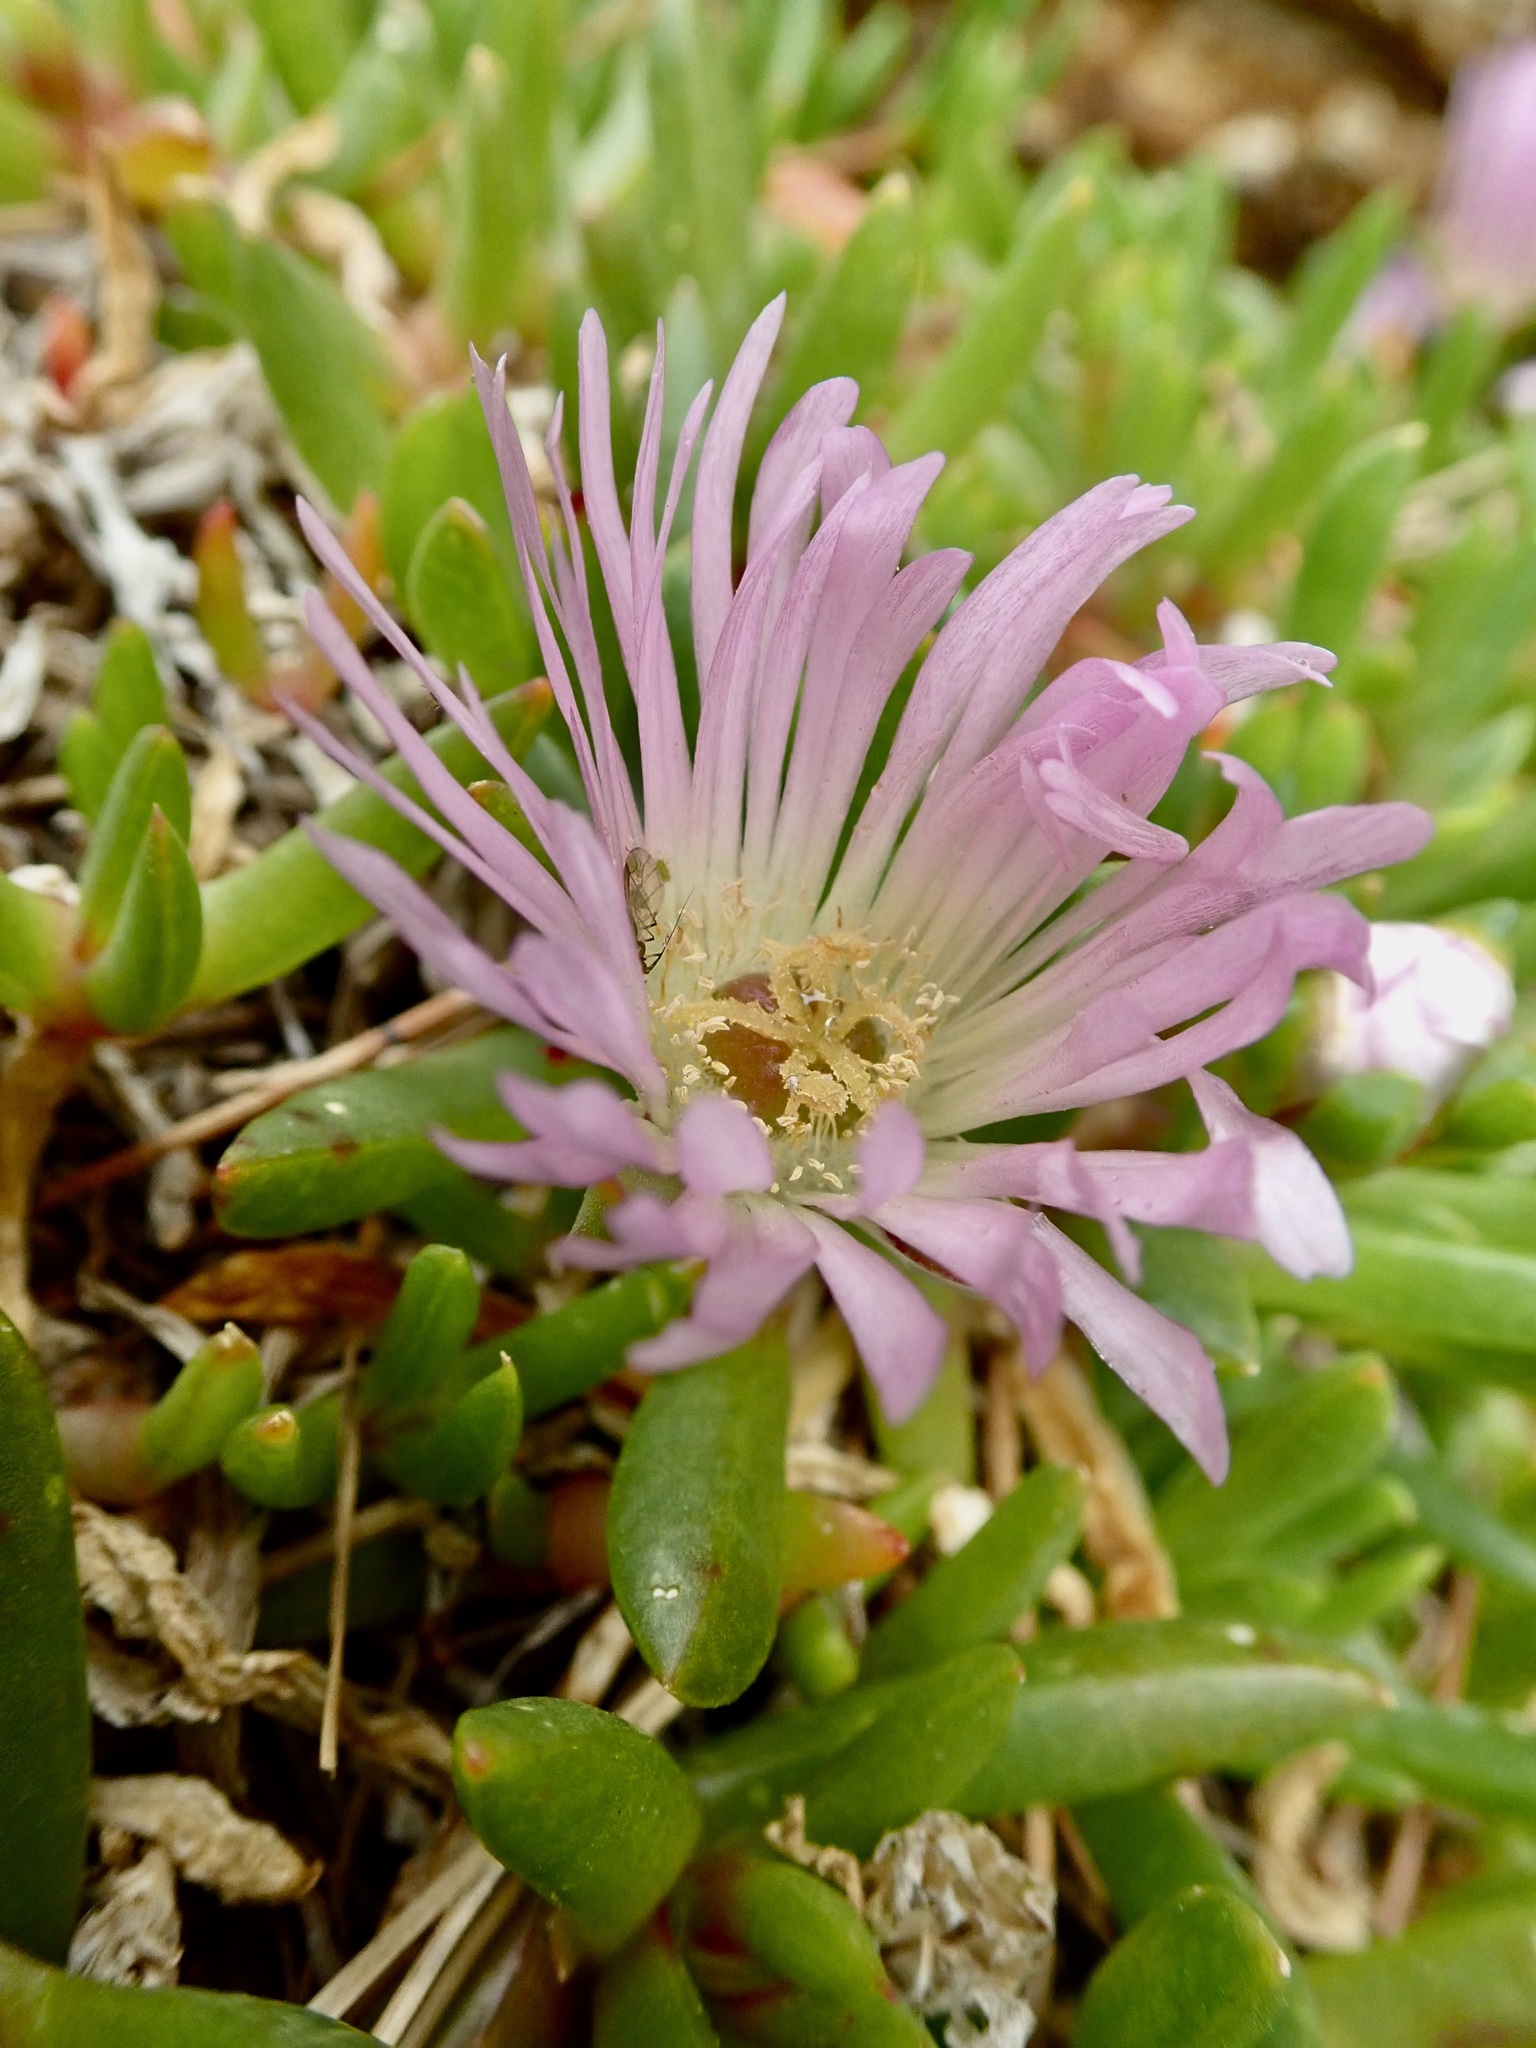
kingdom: Plantae
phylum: Tracheophyta
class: Magnoliopsida
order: Caryophyllales
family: Aizoaceae
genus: Disphyma
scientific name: Disphyma australe
